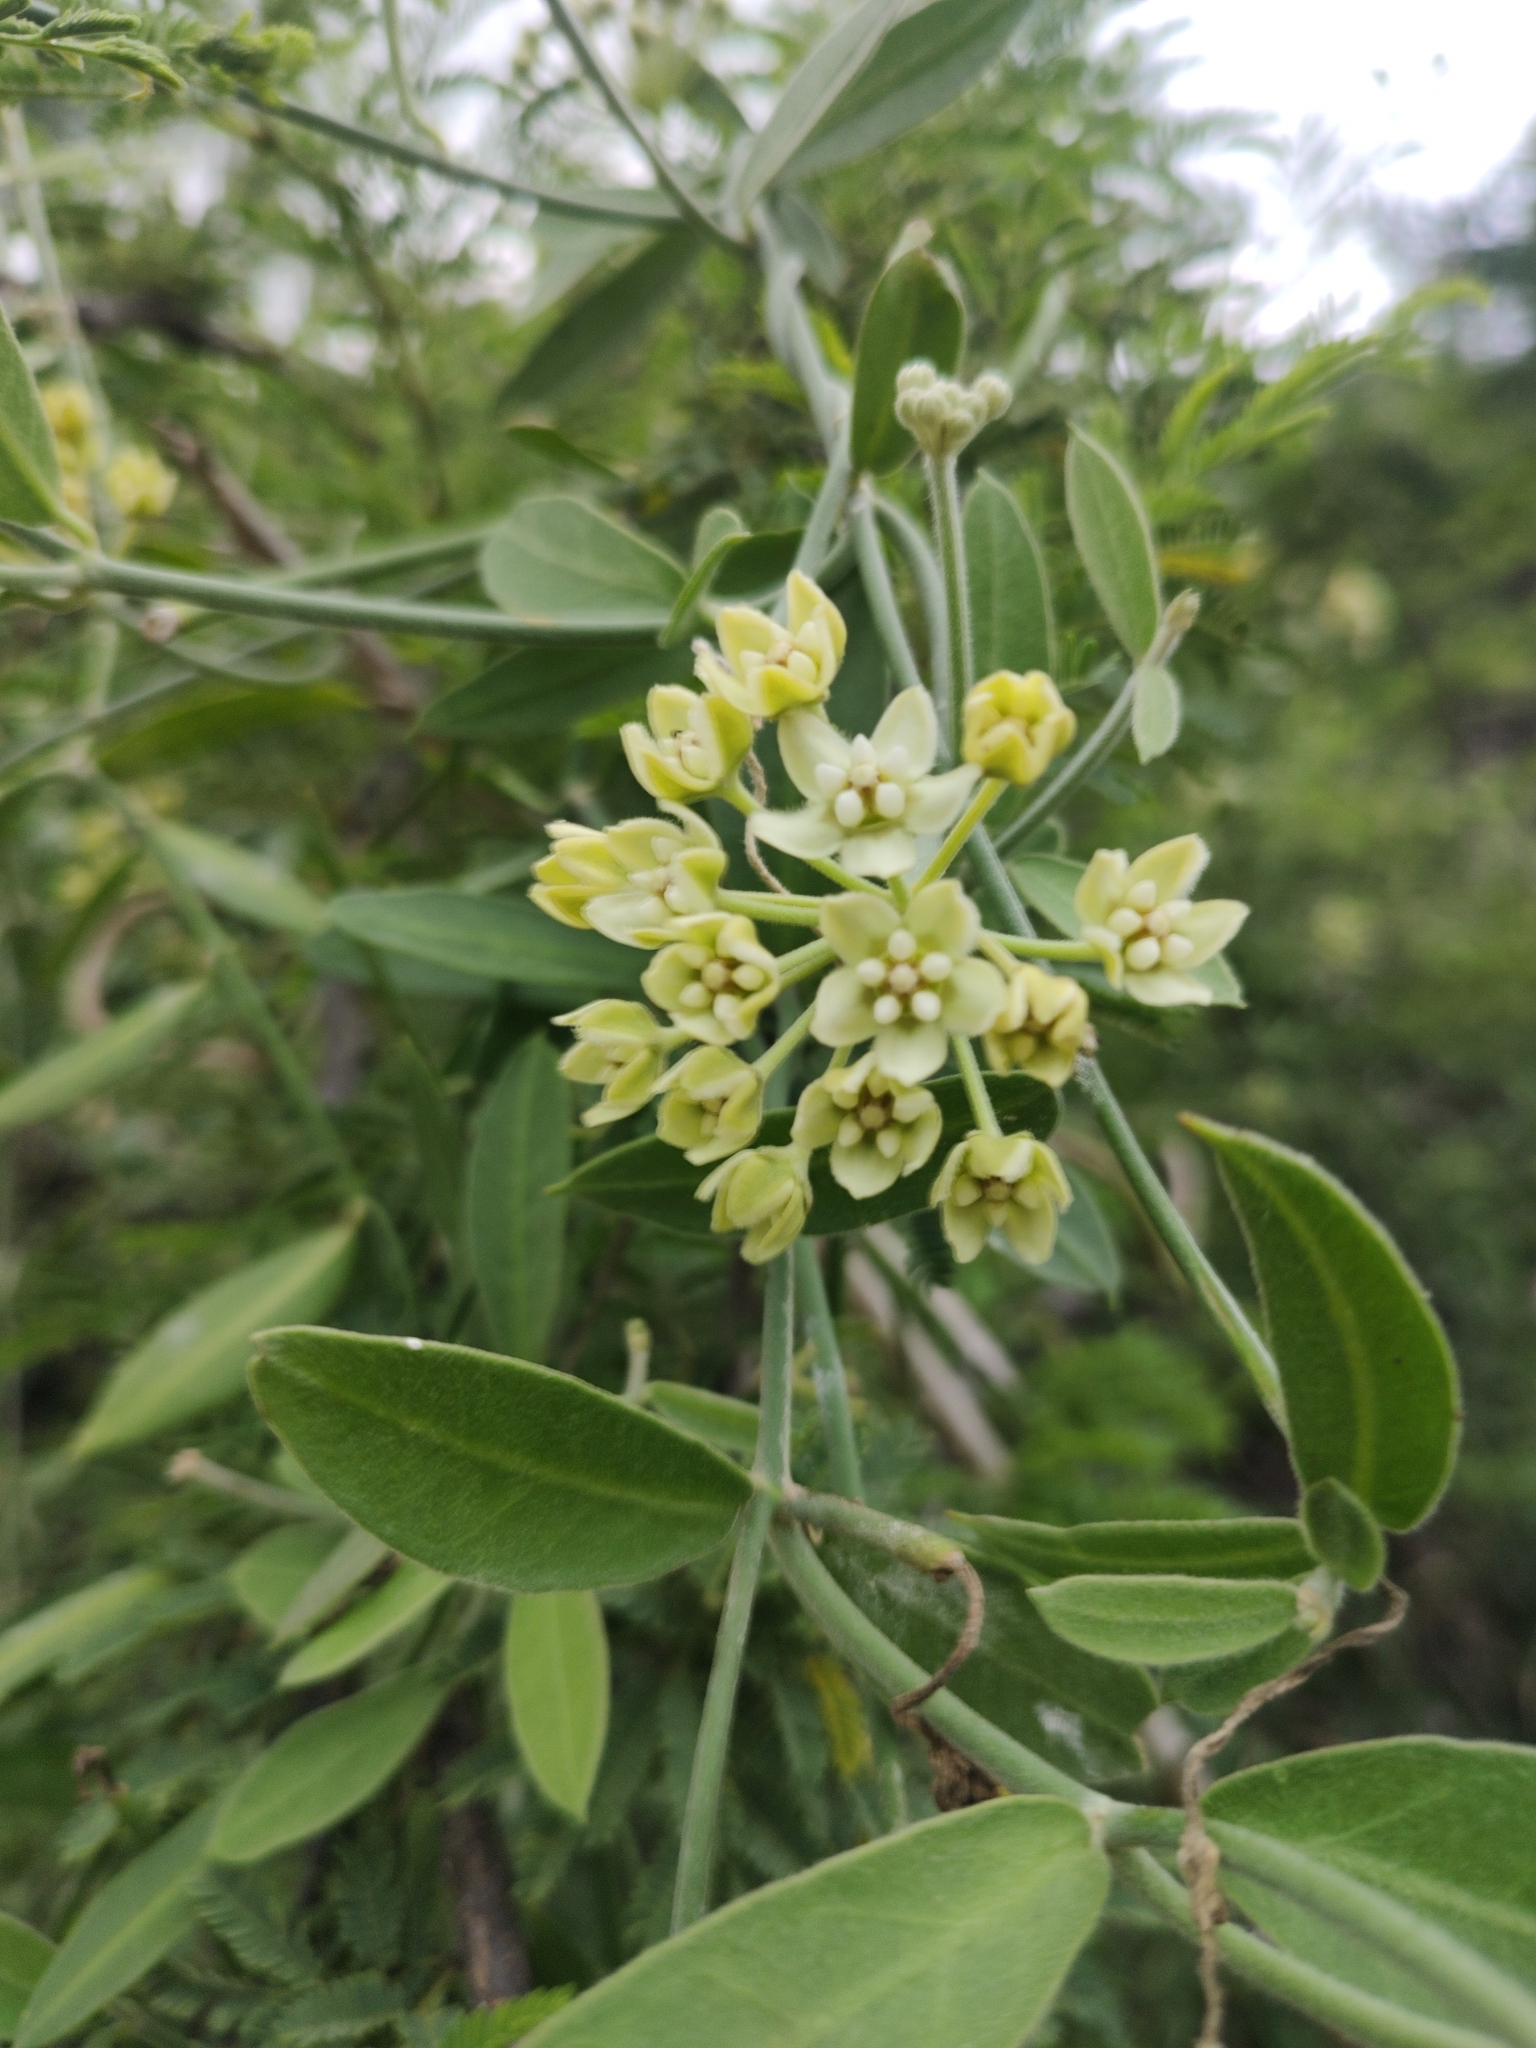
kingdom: Plantae
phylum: Tracheophyta
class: Magnoliopsida
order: Gentianales
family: Apocynaceae
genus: Funastrum
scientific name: Funastrum clausum
